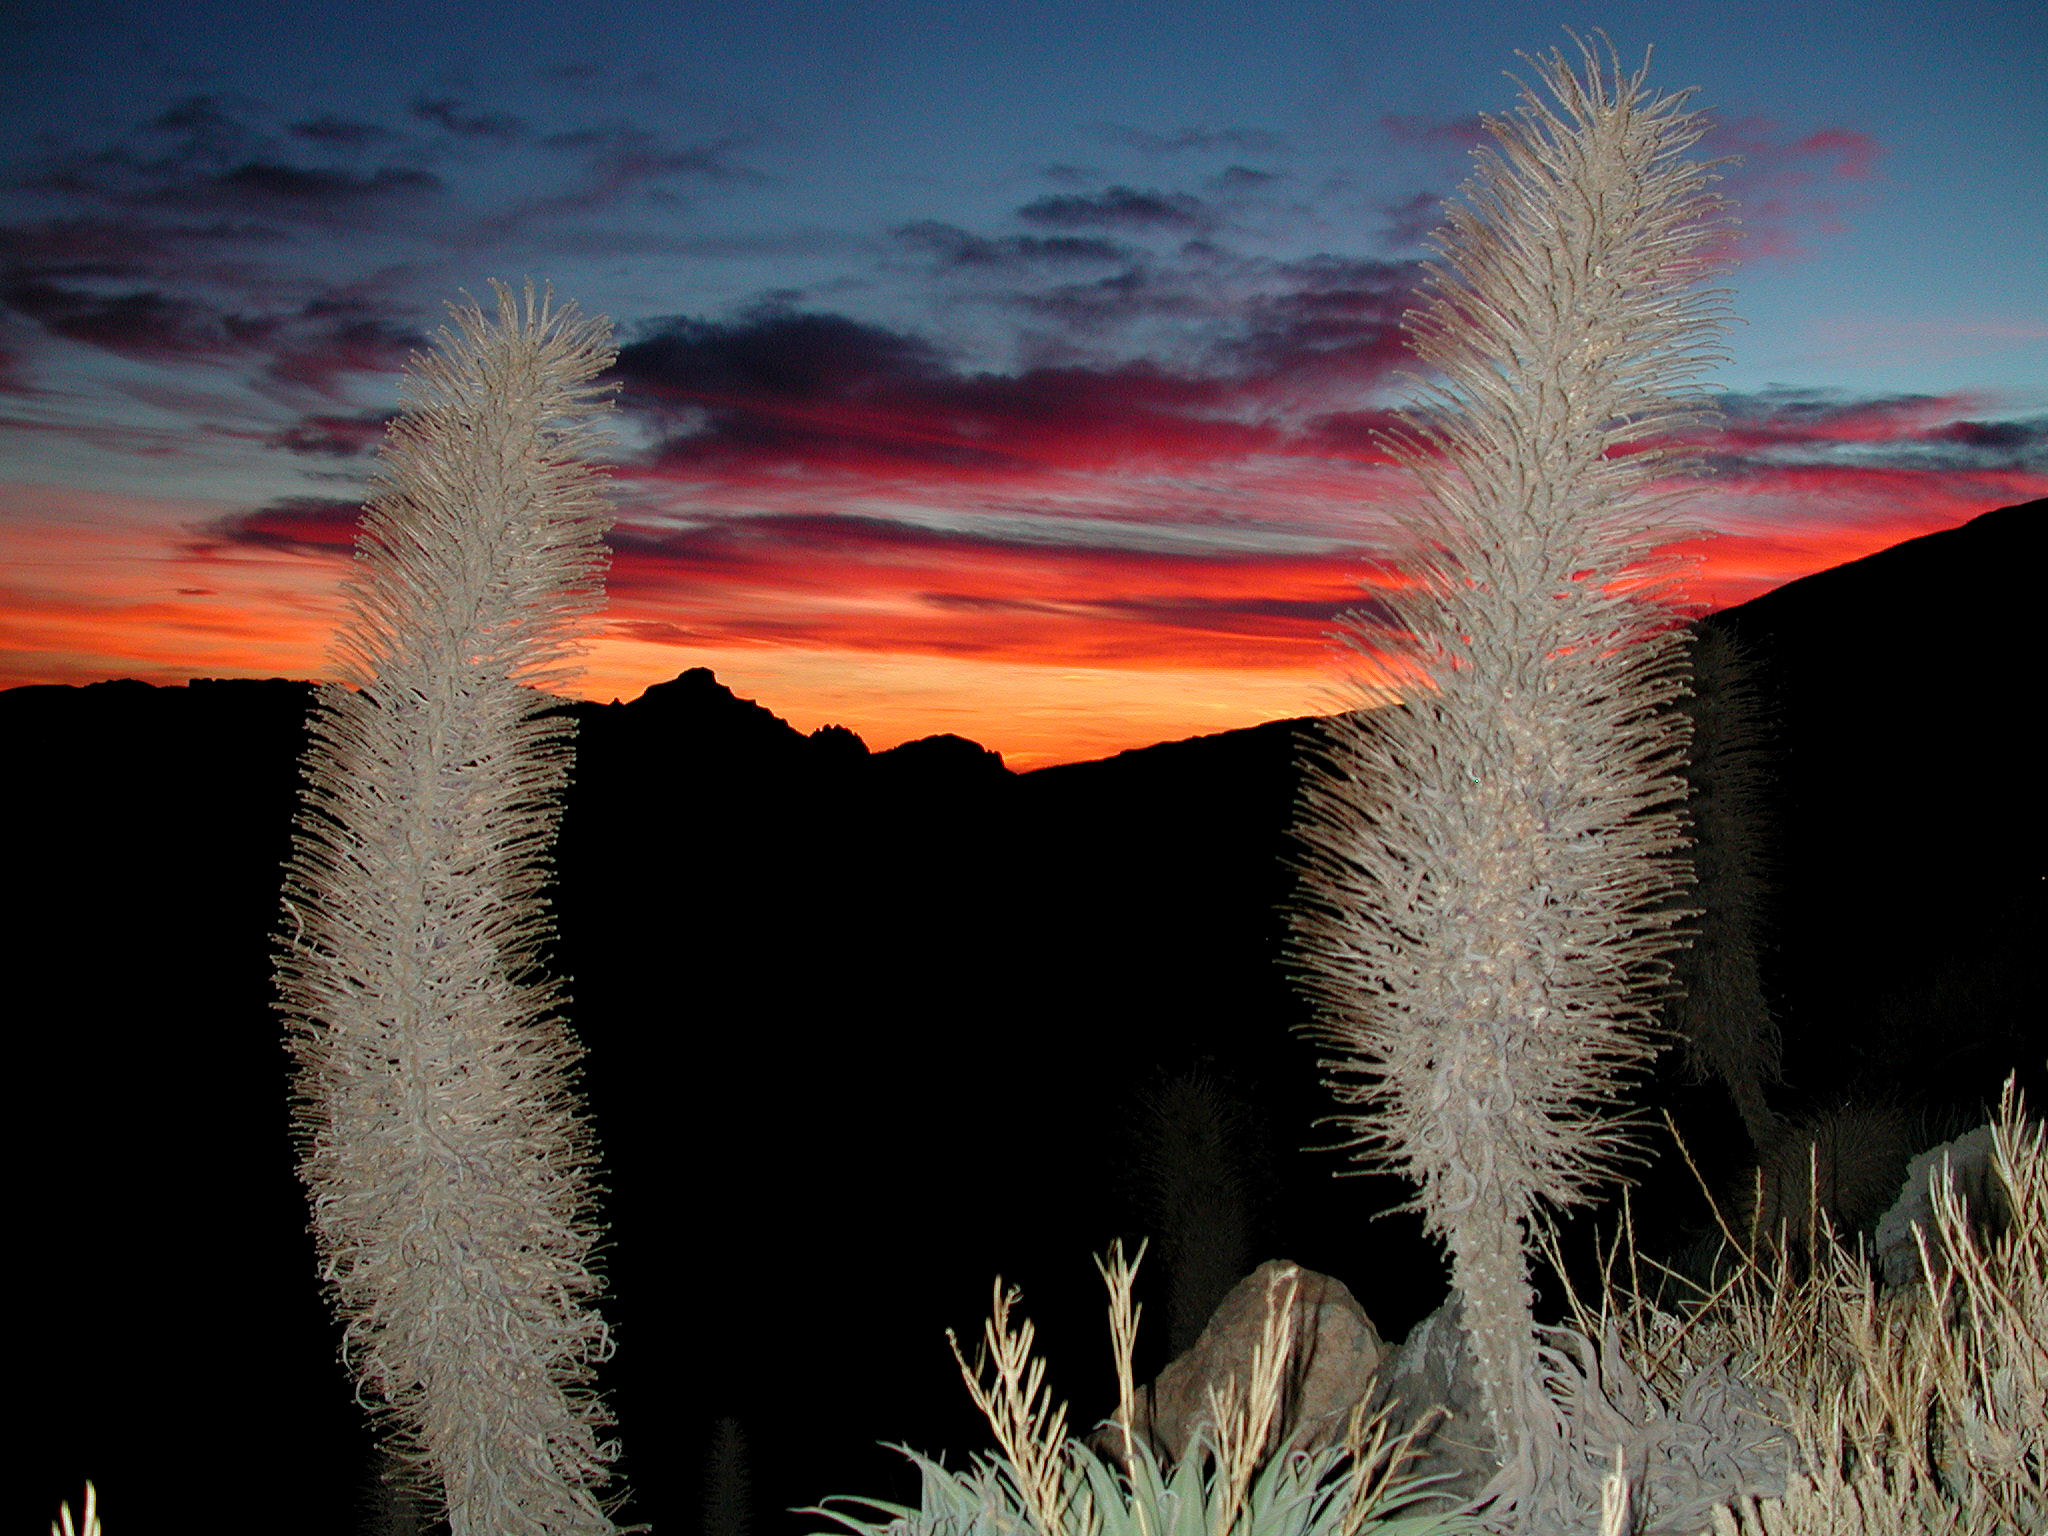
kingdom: Plantae
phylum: Tracheophyta
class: Magnoliopsida
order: Boraginales
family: Boraginaceae
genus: Echium
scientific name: Echium wildpretii
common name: Tower-of-jewels
